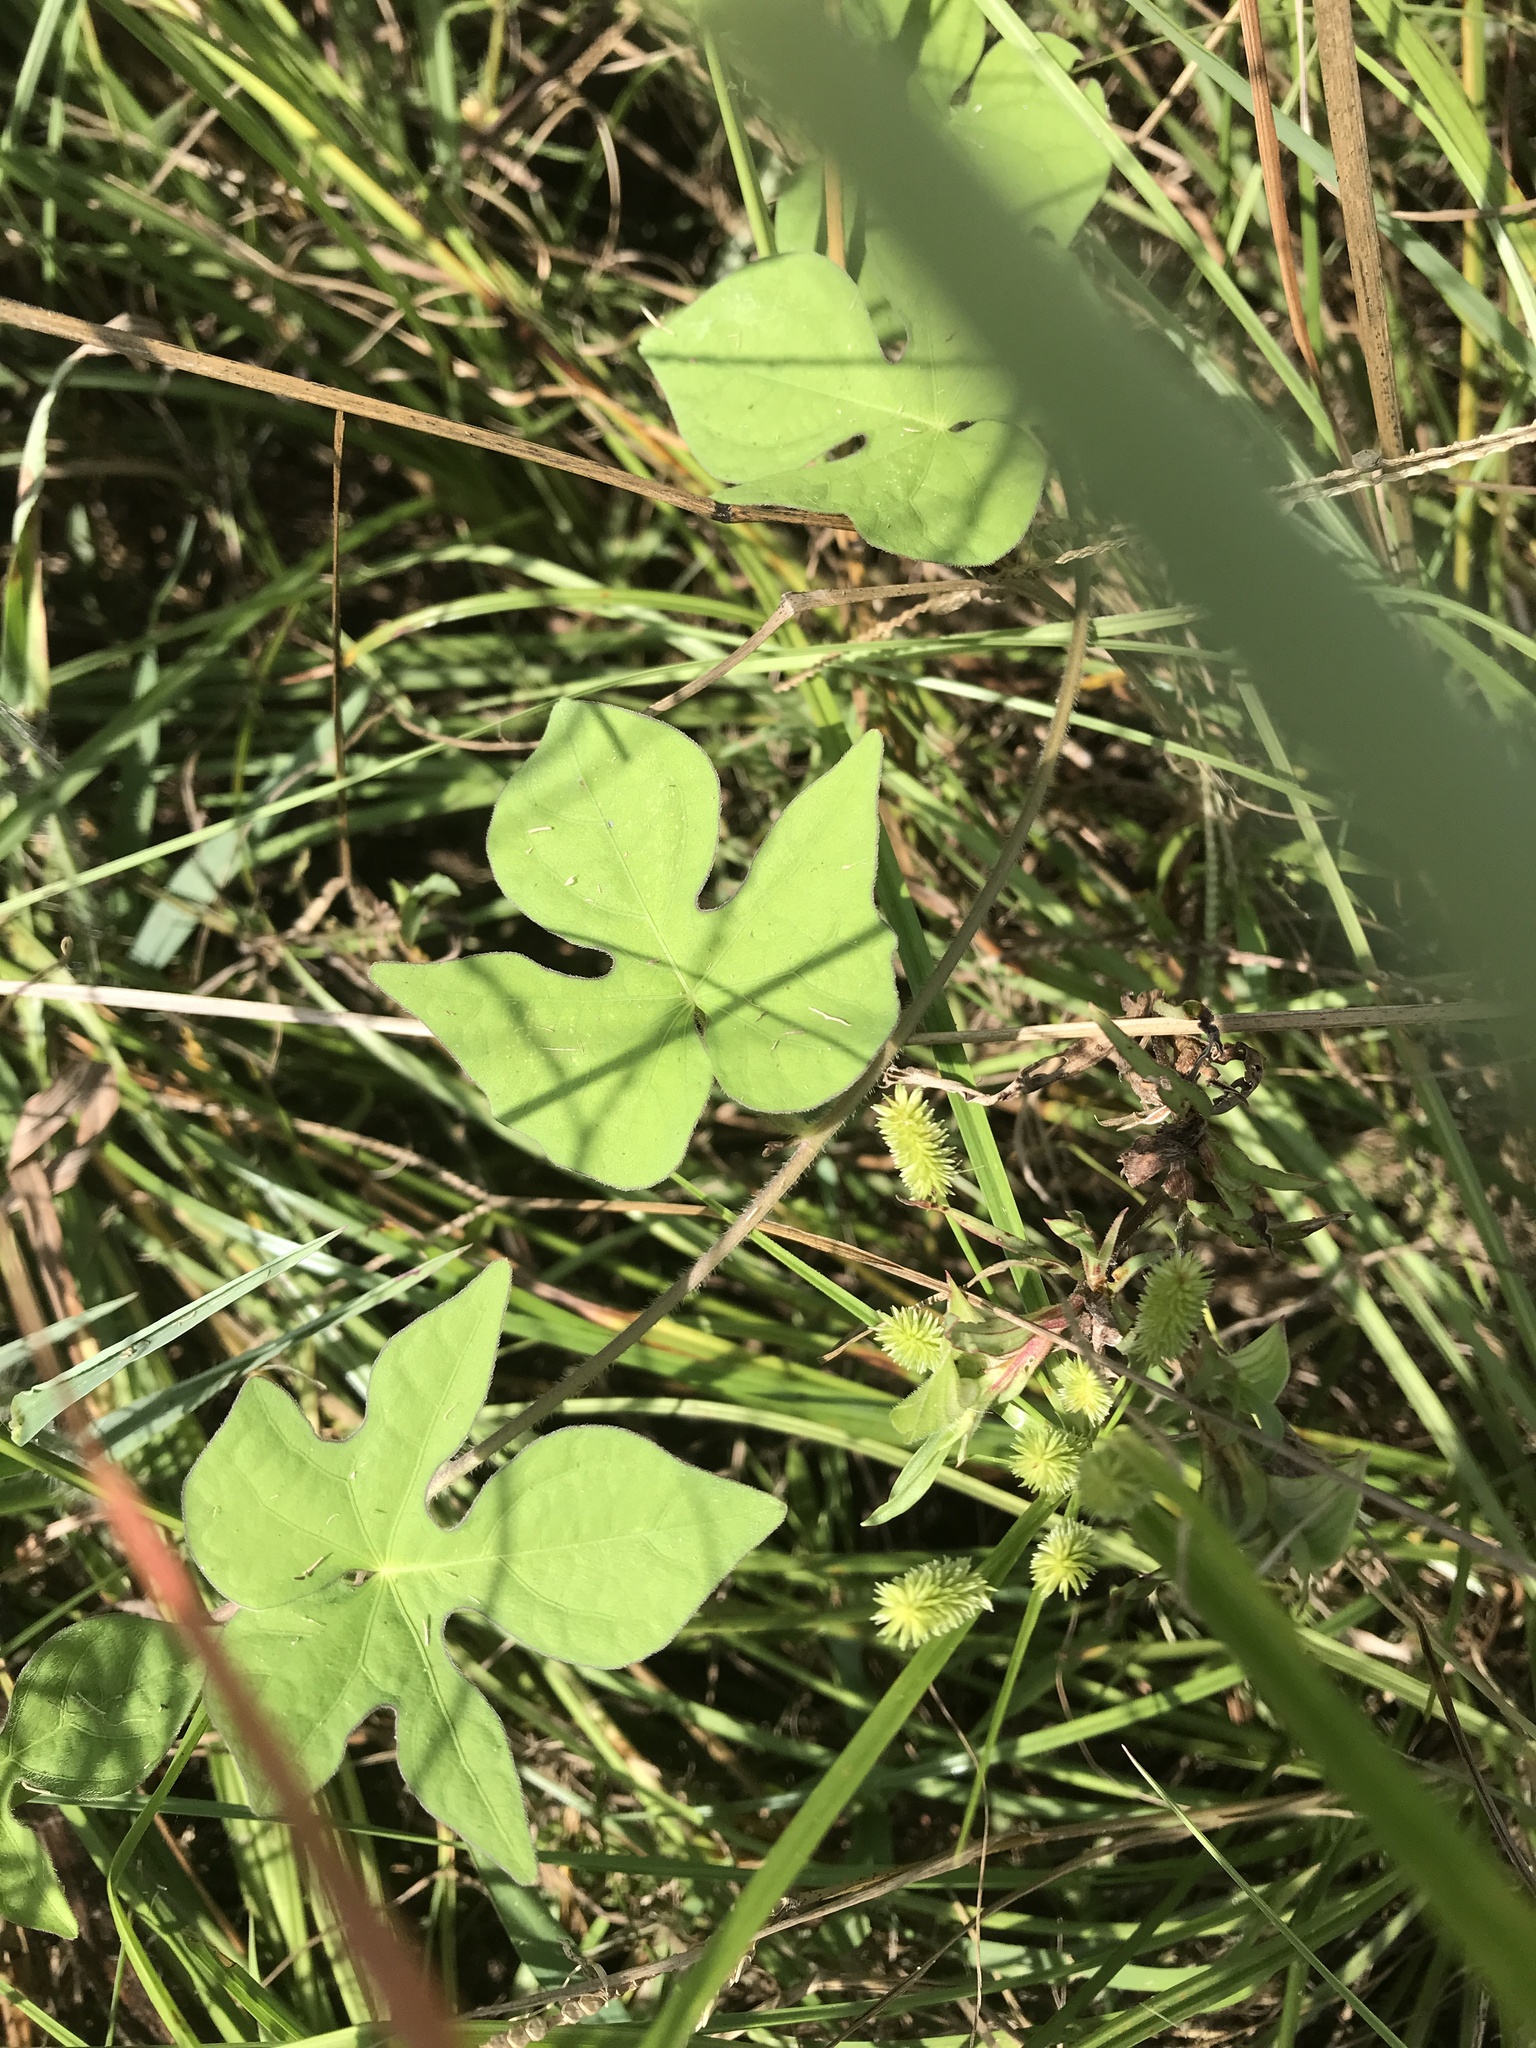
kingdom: Plantae
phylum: Tracheophyta
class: Magnoliopsida
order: Solanales
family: Convolvulaceae
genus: Ipomoea
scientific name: Ipomoea cordatotriloba
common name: Cotton morning glory
